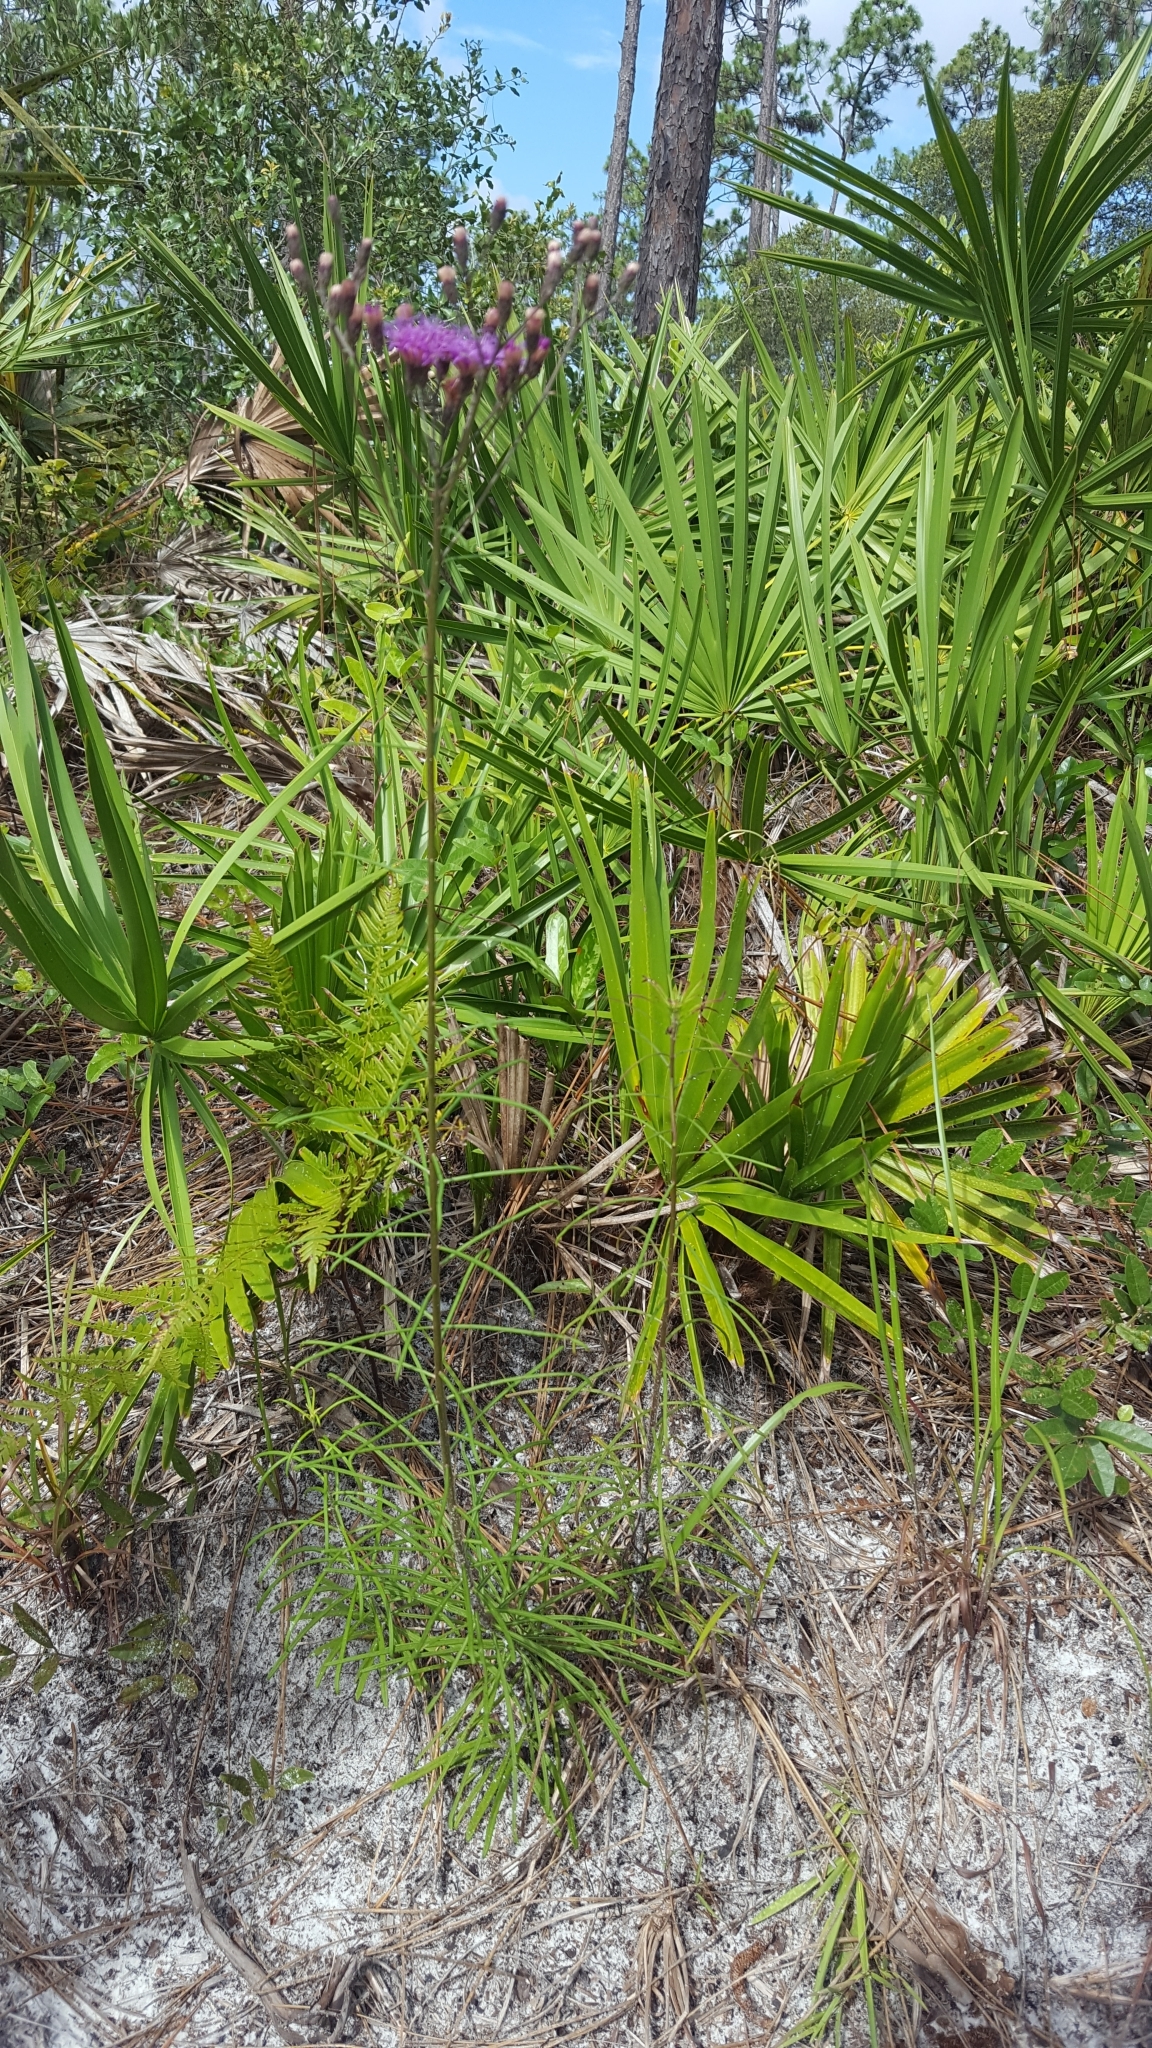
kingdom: Plantae
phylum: Tracheophyta
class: Magnoliopsida
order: Asterales
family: Asteraceae
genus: Vernonia
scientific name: Vernonia angustifolia
